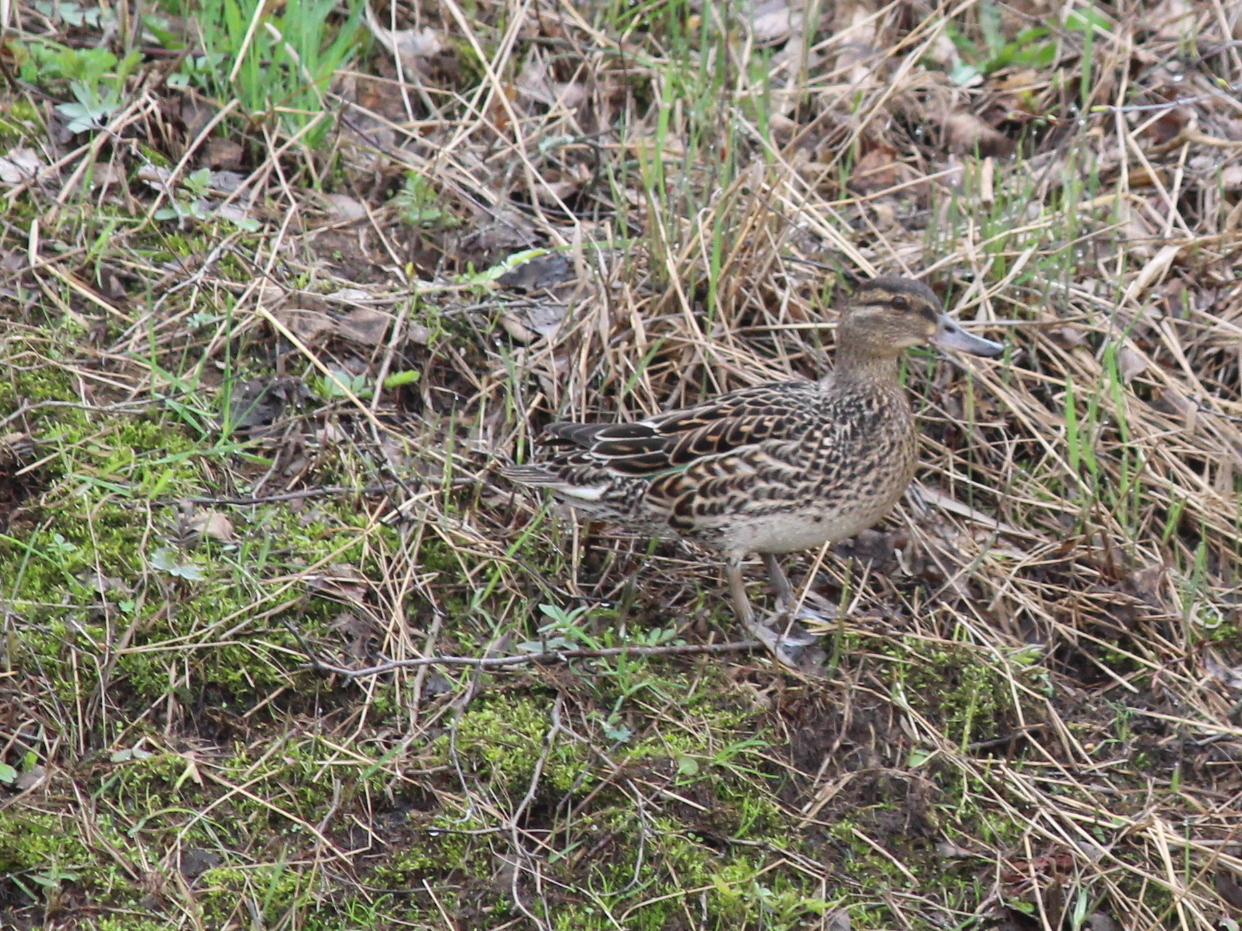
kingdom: Animalia
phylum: Chordata
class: Aves
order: Anseriformes
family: Anatidae
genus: Anas
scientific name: Anas crecca
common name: Eurasian teal
